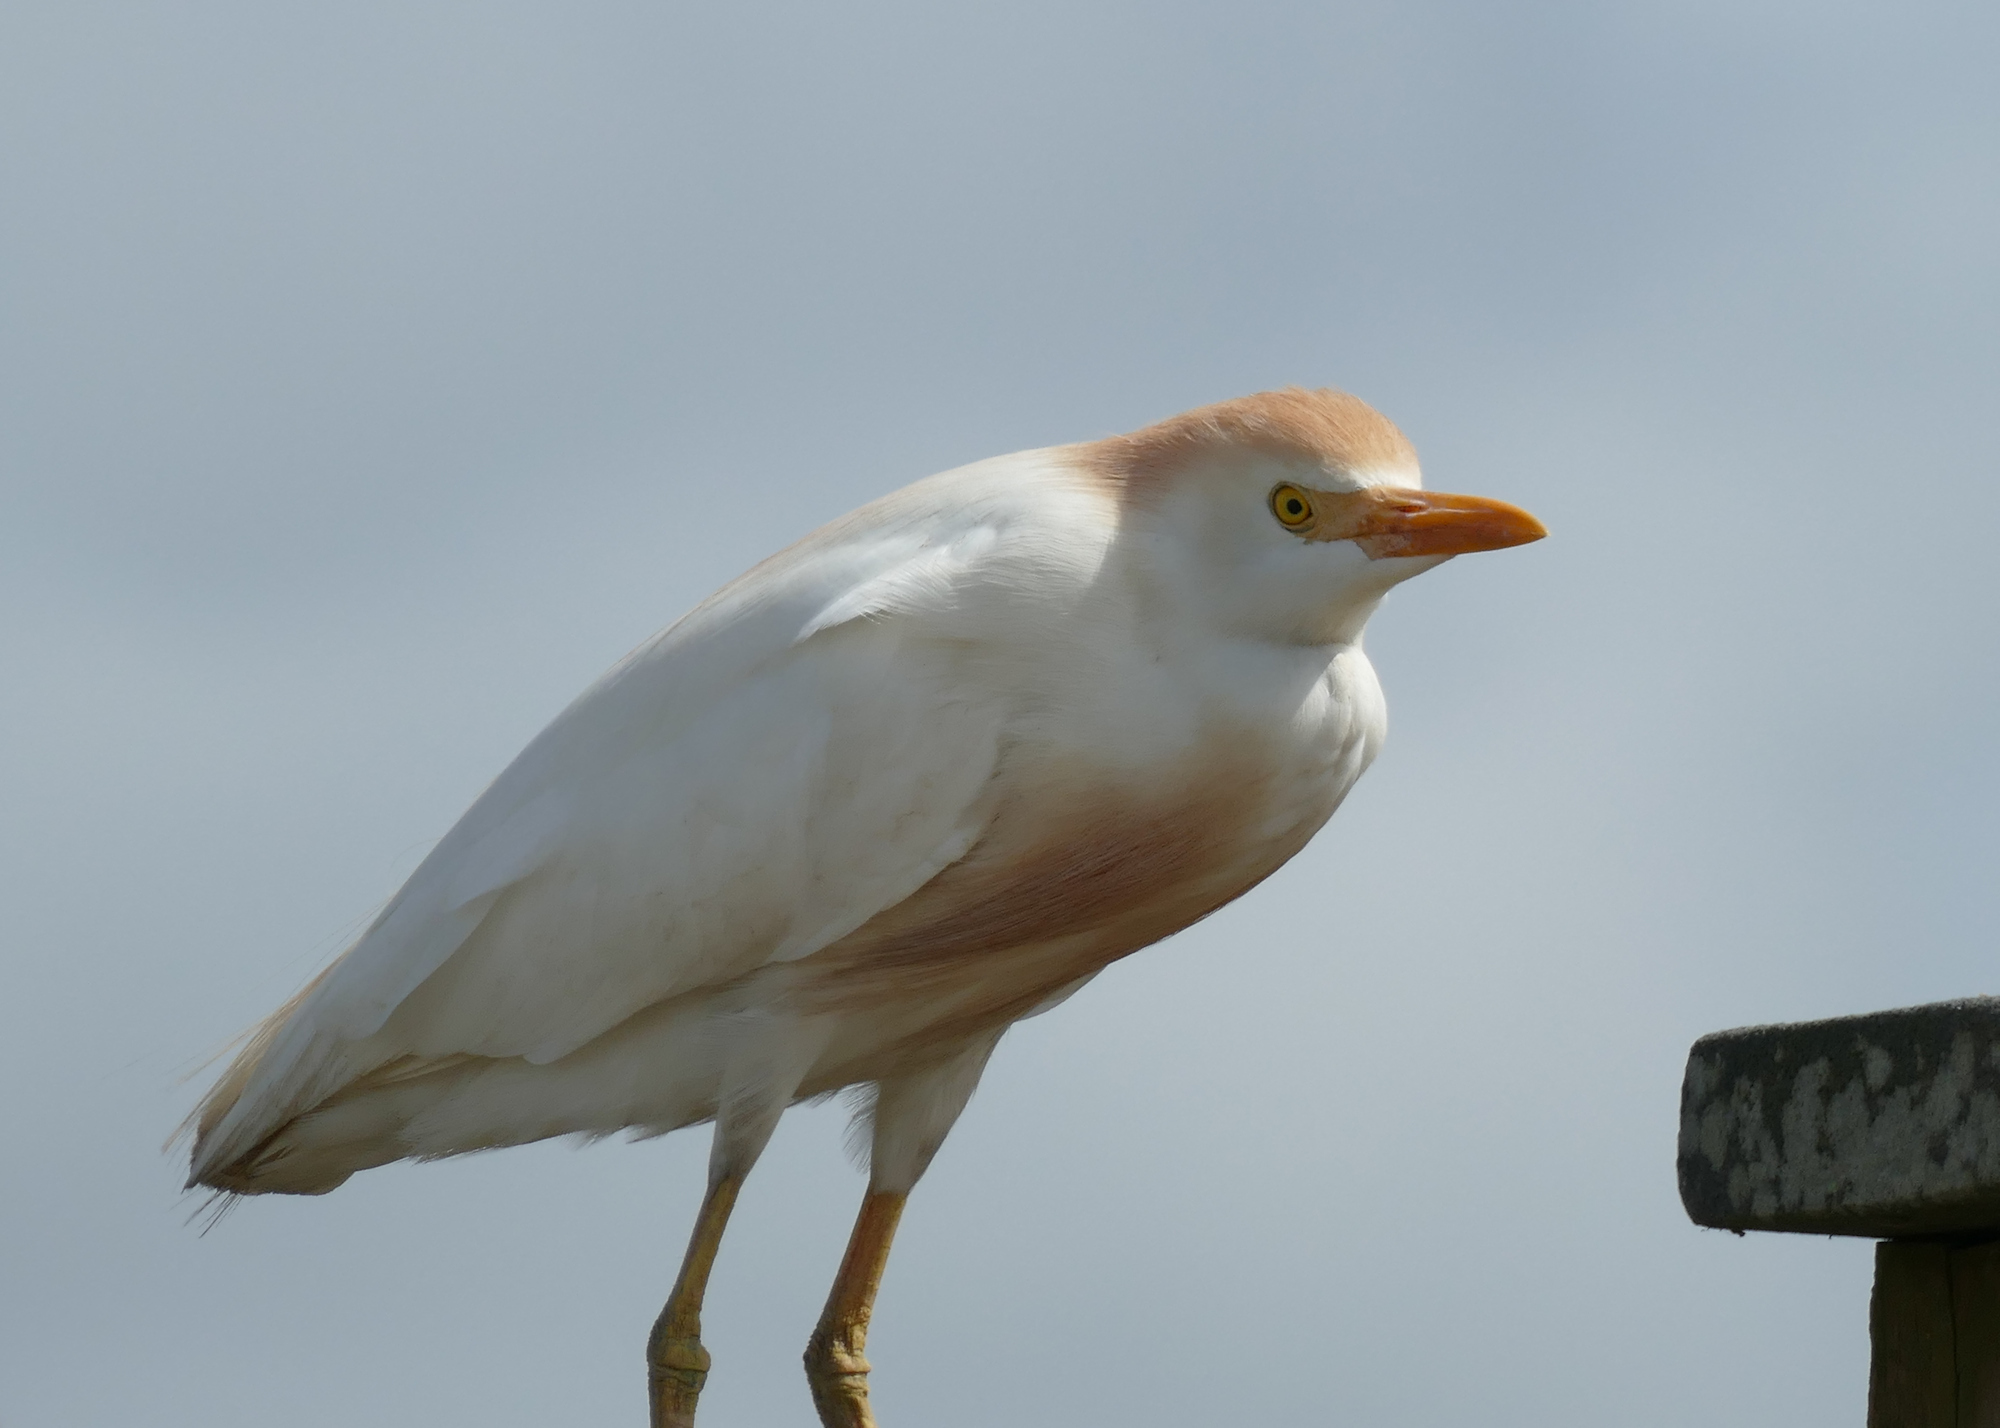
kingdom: Animalia
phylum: Chordata
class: Aves
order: Pelecaniformes
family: Ardeidae
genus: Bubulcus
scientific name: Bubulcus ibis
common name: Cattle egret
